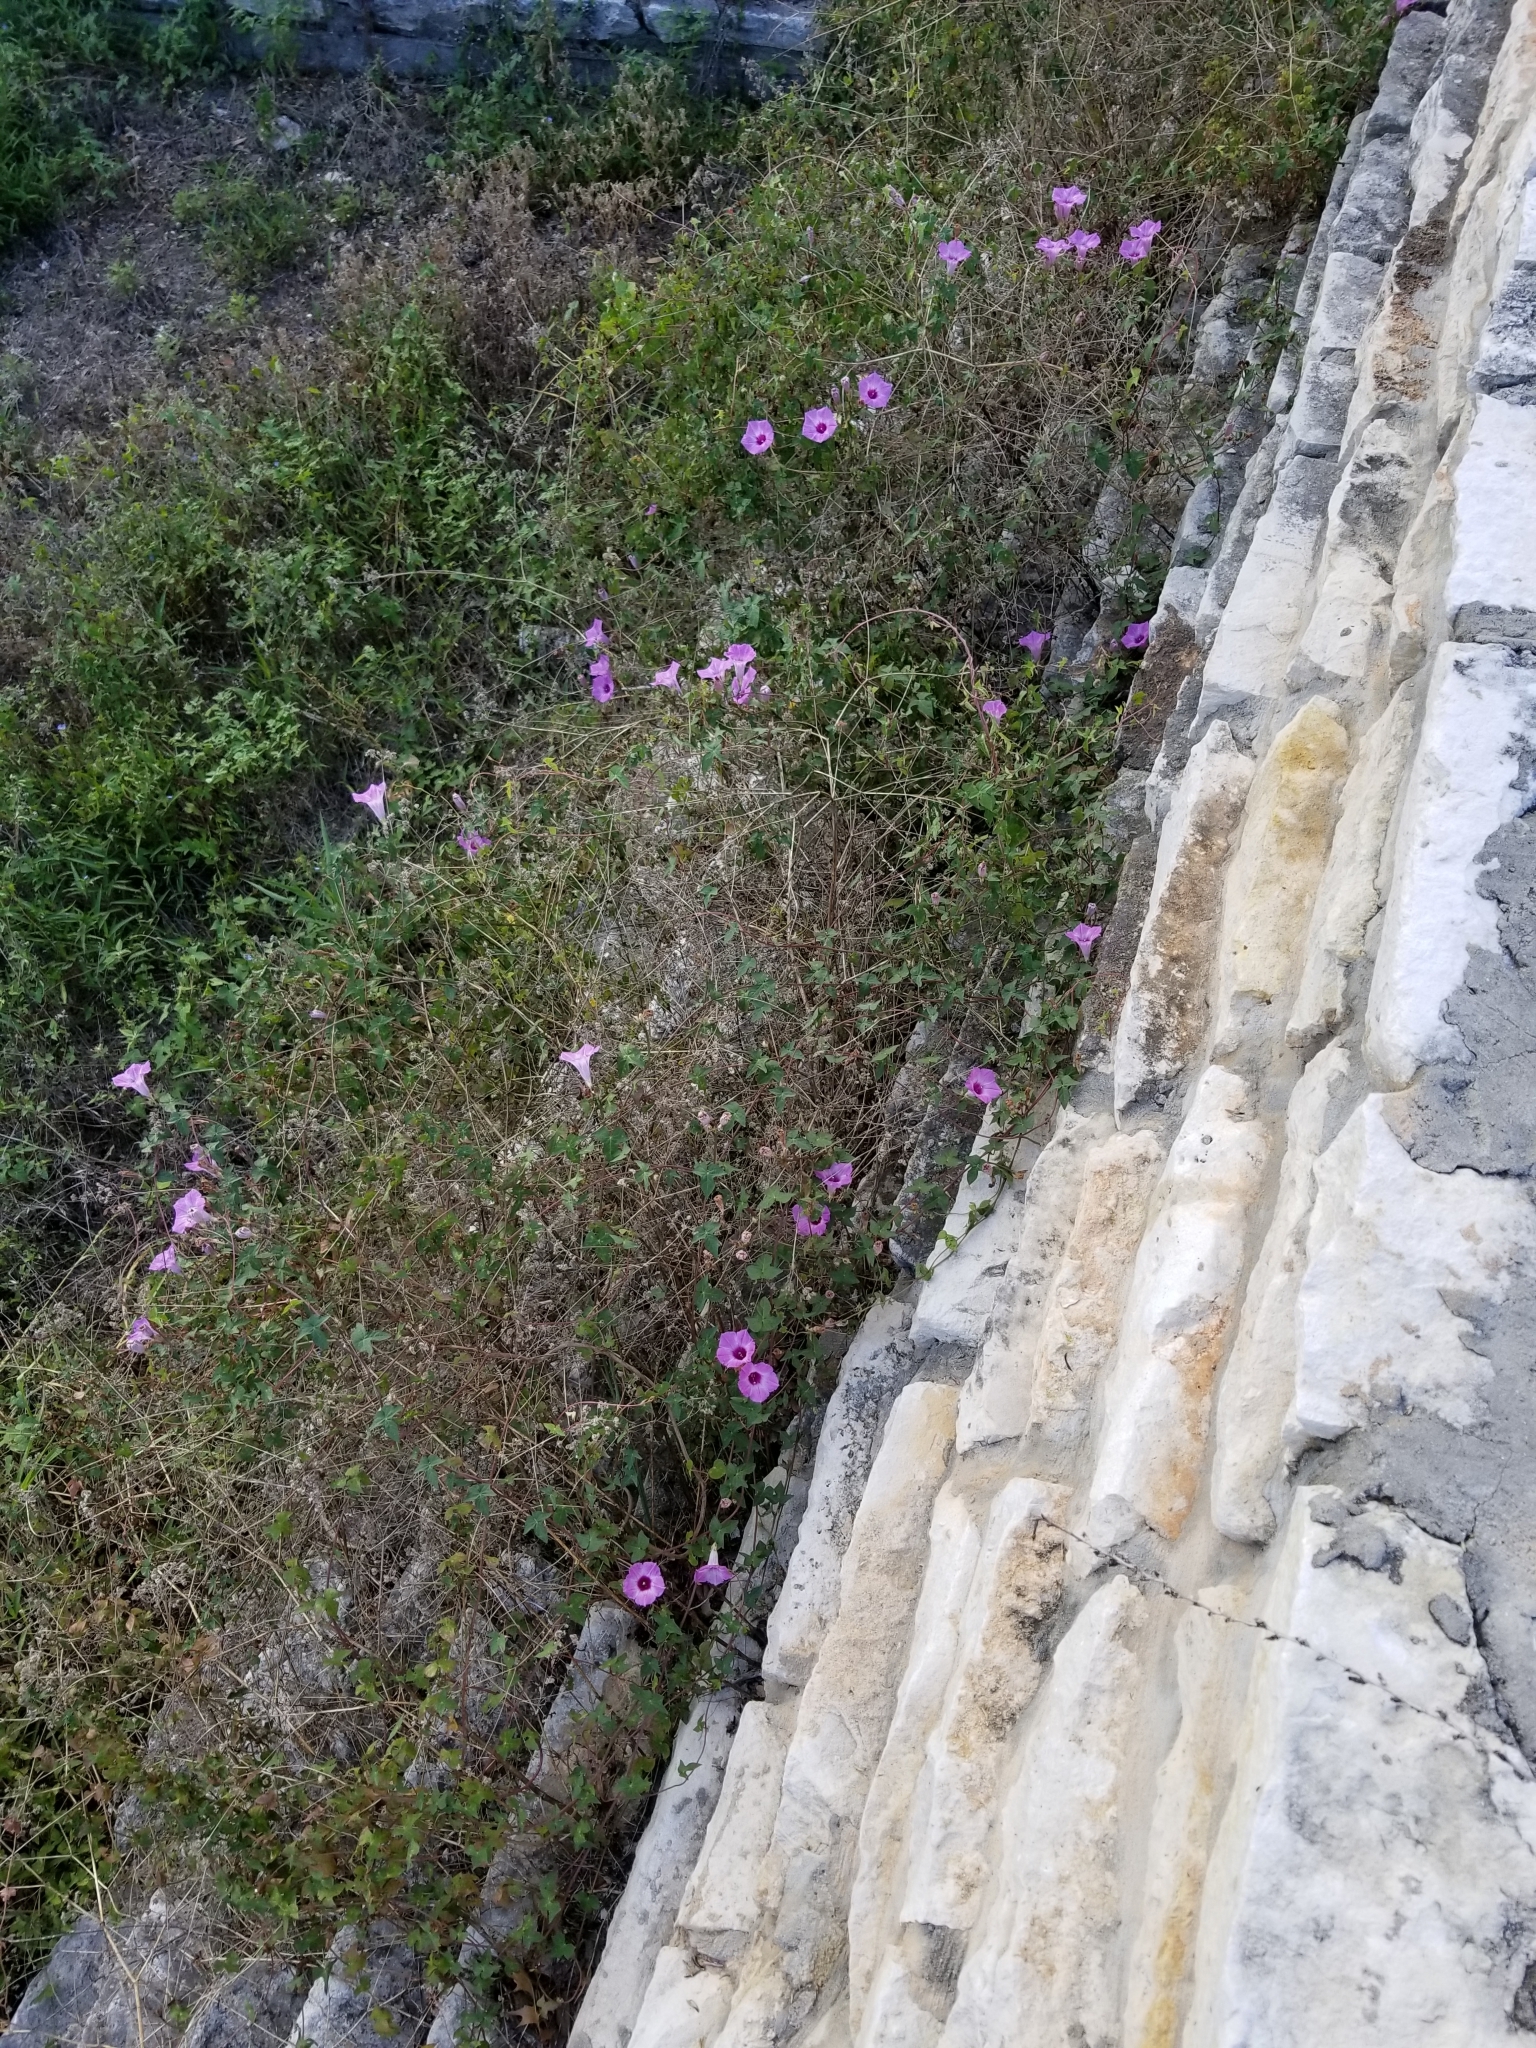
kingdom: Plantae
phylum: Tracheophyta
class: Magnoliopsida
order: Solanales
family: Convolvulaceae
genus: Ipomoea
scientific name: Ipomoea cordatotriloba
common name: Cotton morning glory
